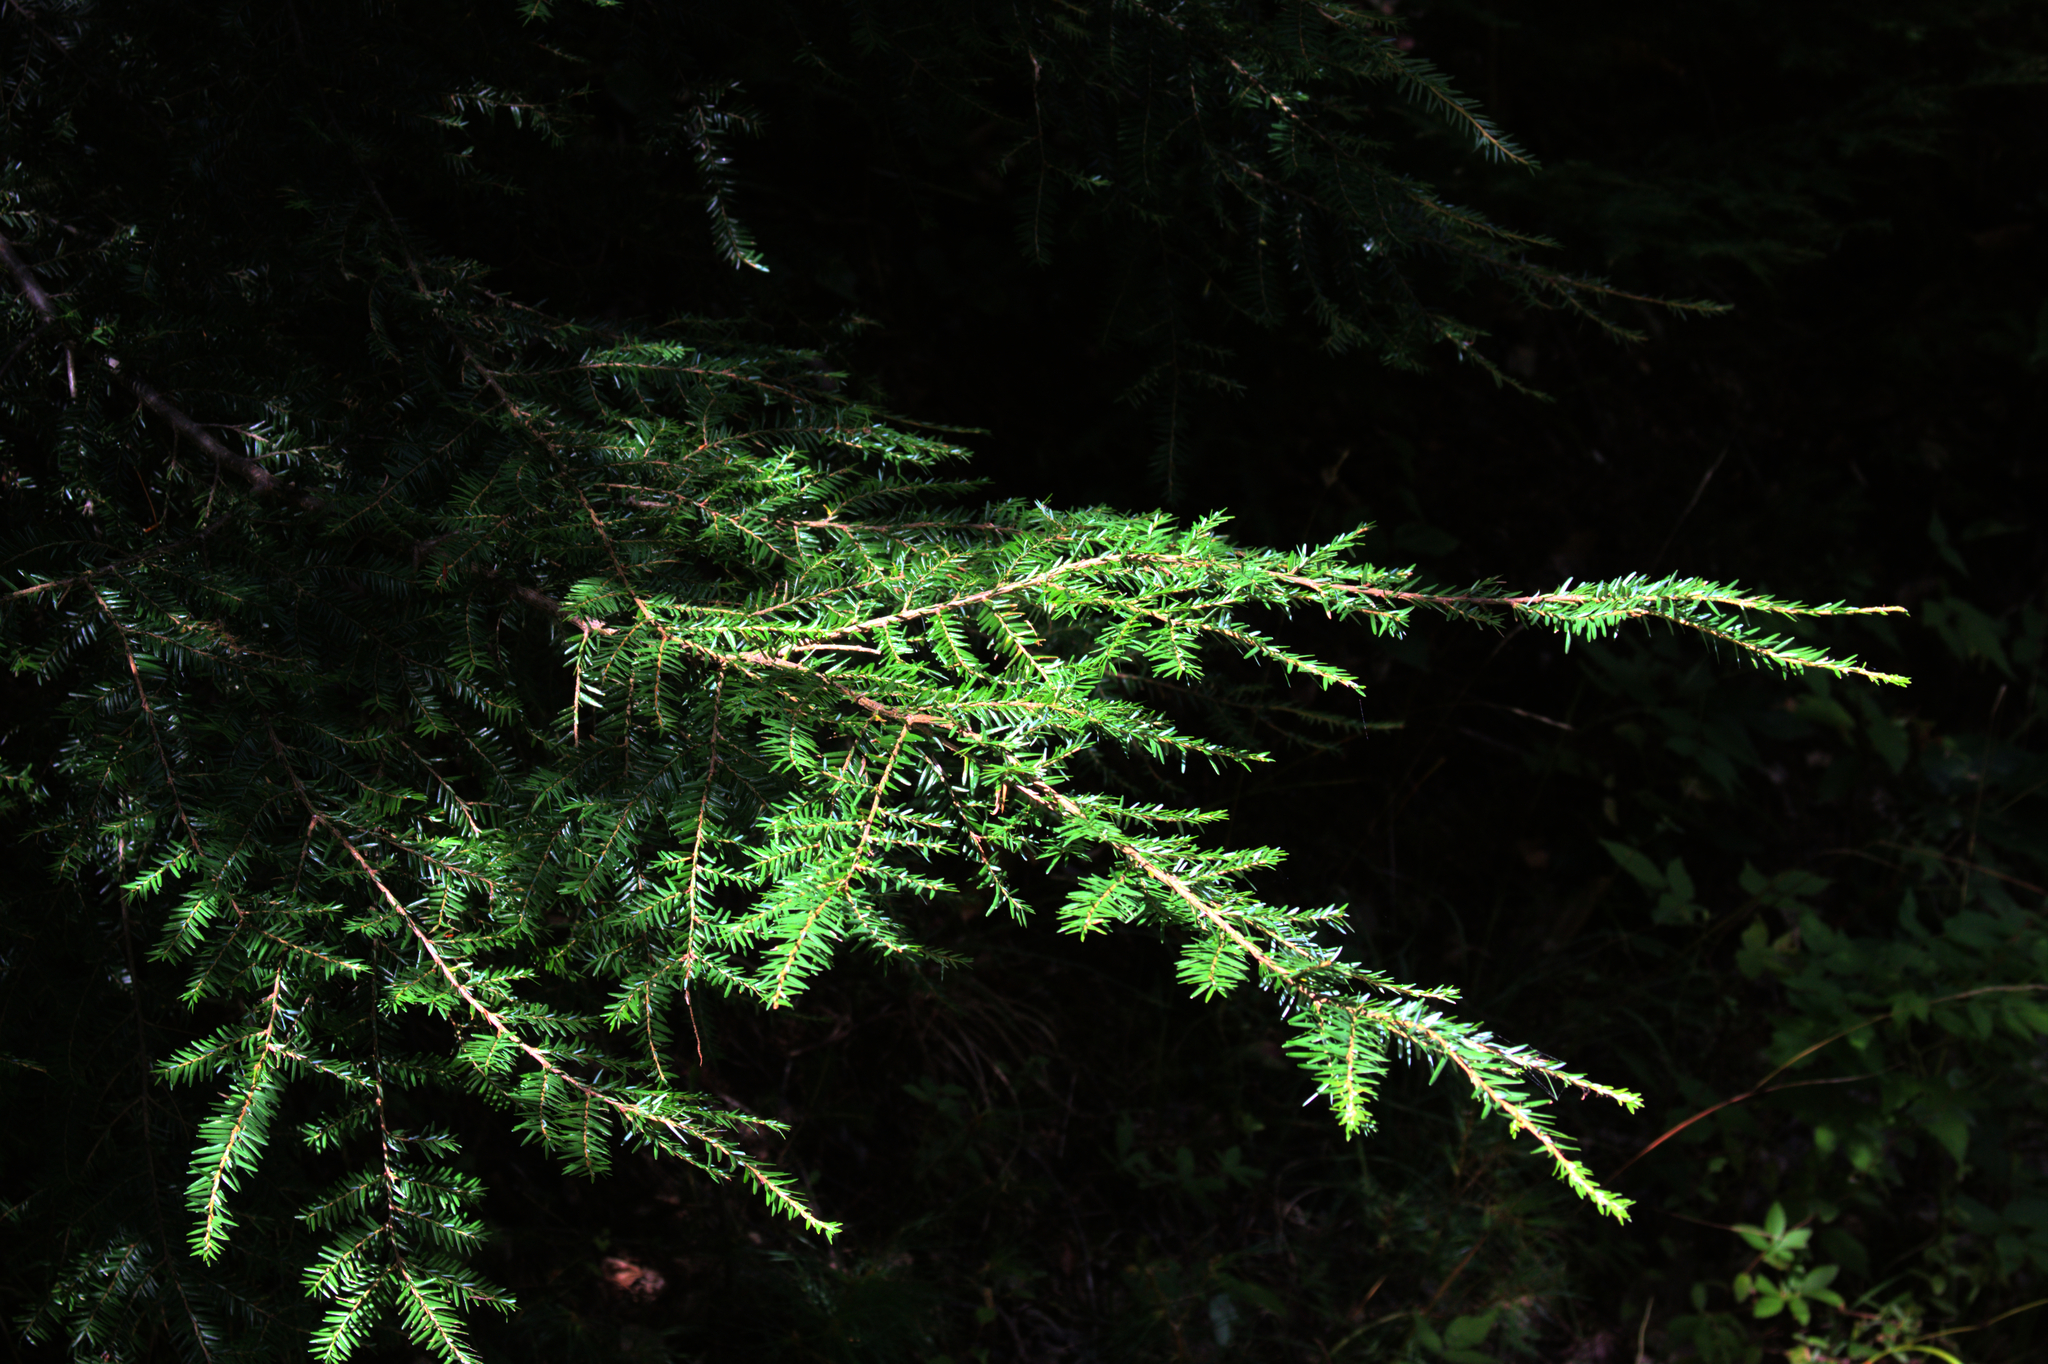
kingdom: Plantae
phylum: Tracheophyta
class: Pinopsida
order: Pinales
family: Pinaceae
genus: Tsuga
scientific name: Tsuga canadensis
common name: Eastern hemlock
